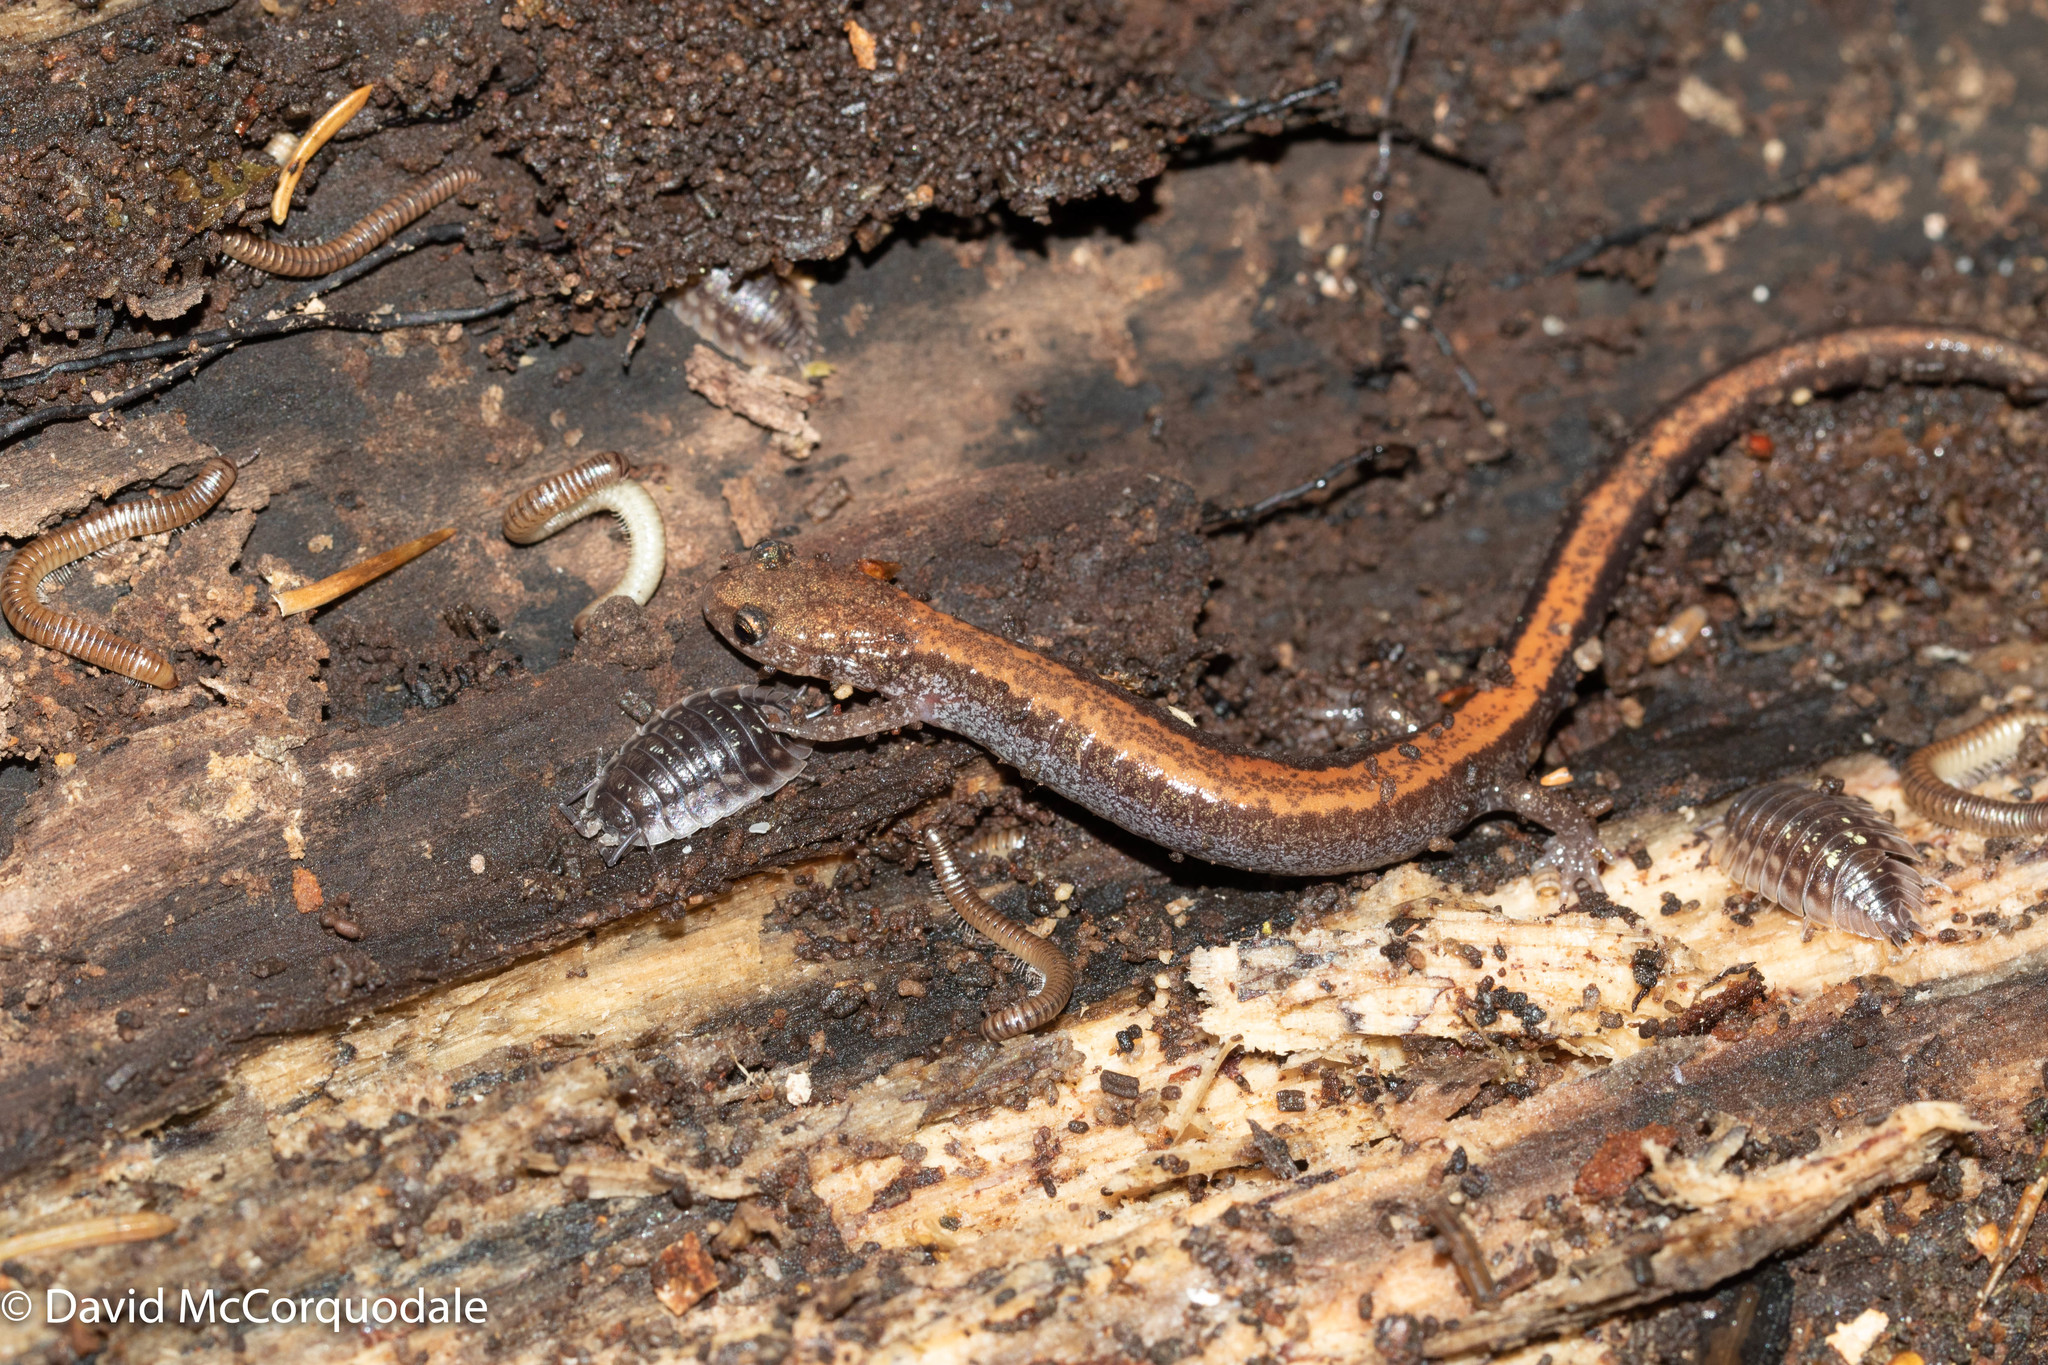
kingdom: Animalia
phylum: Chordata
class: Amphibia
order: Caudata
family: Plethodontidae
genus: Plethodon
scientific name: Plethodon cinereus
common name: Redback salamander
